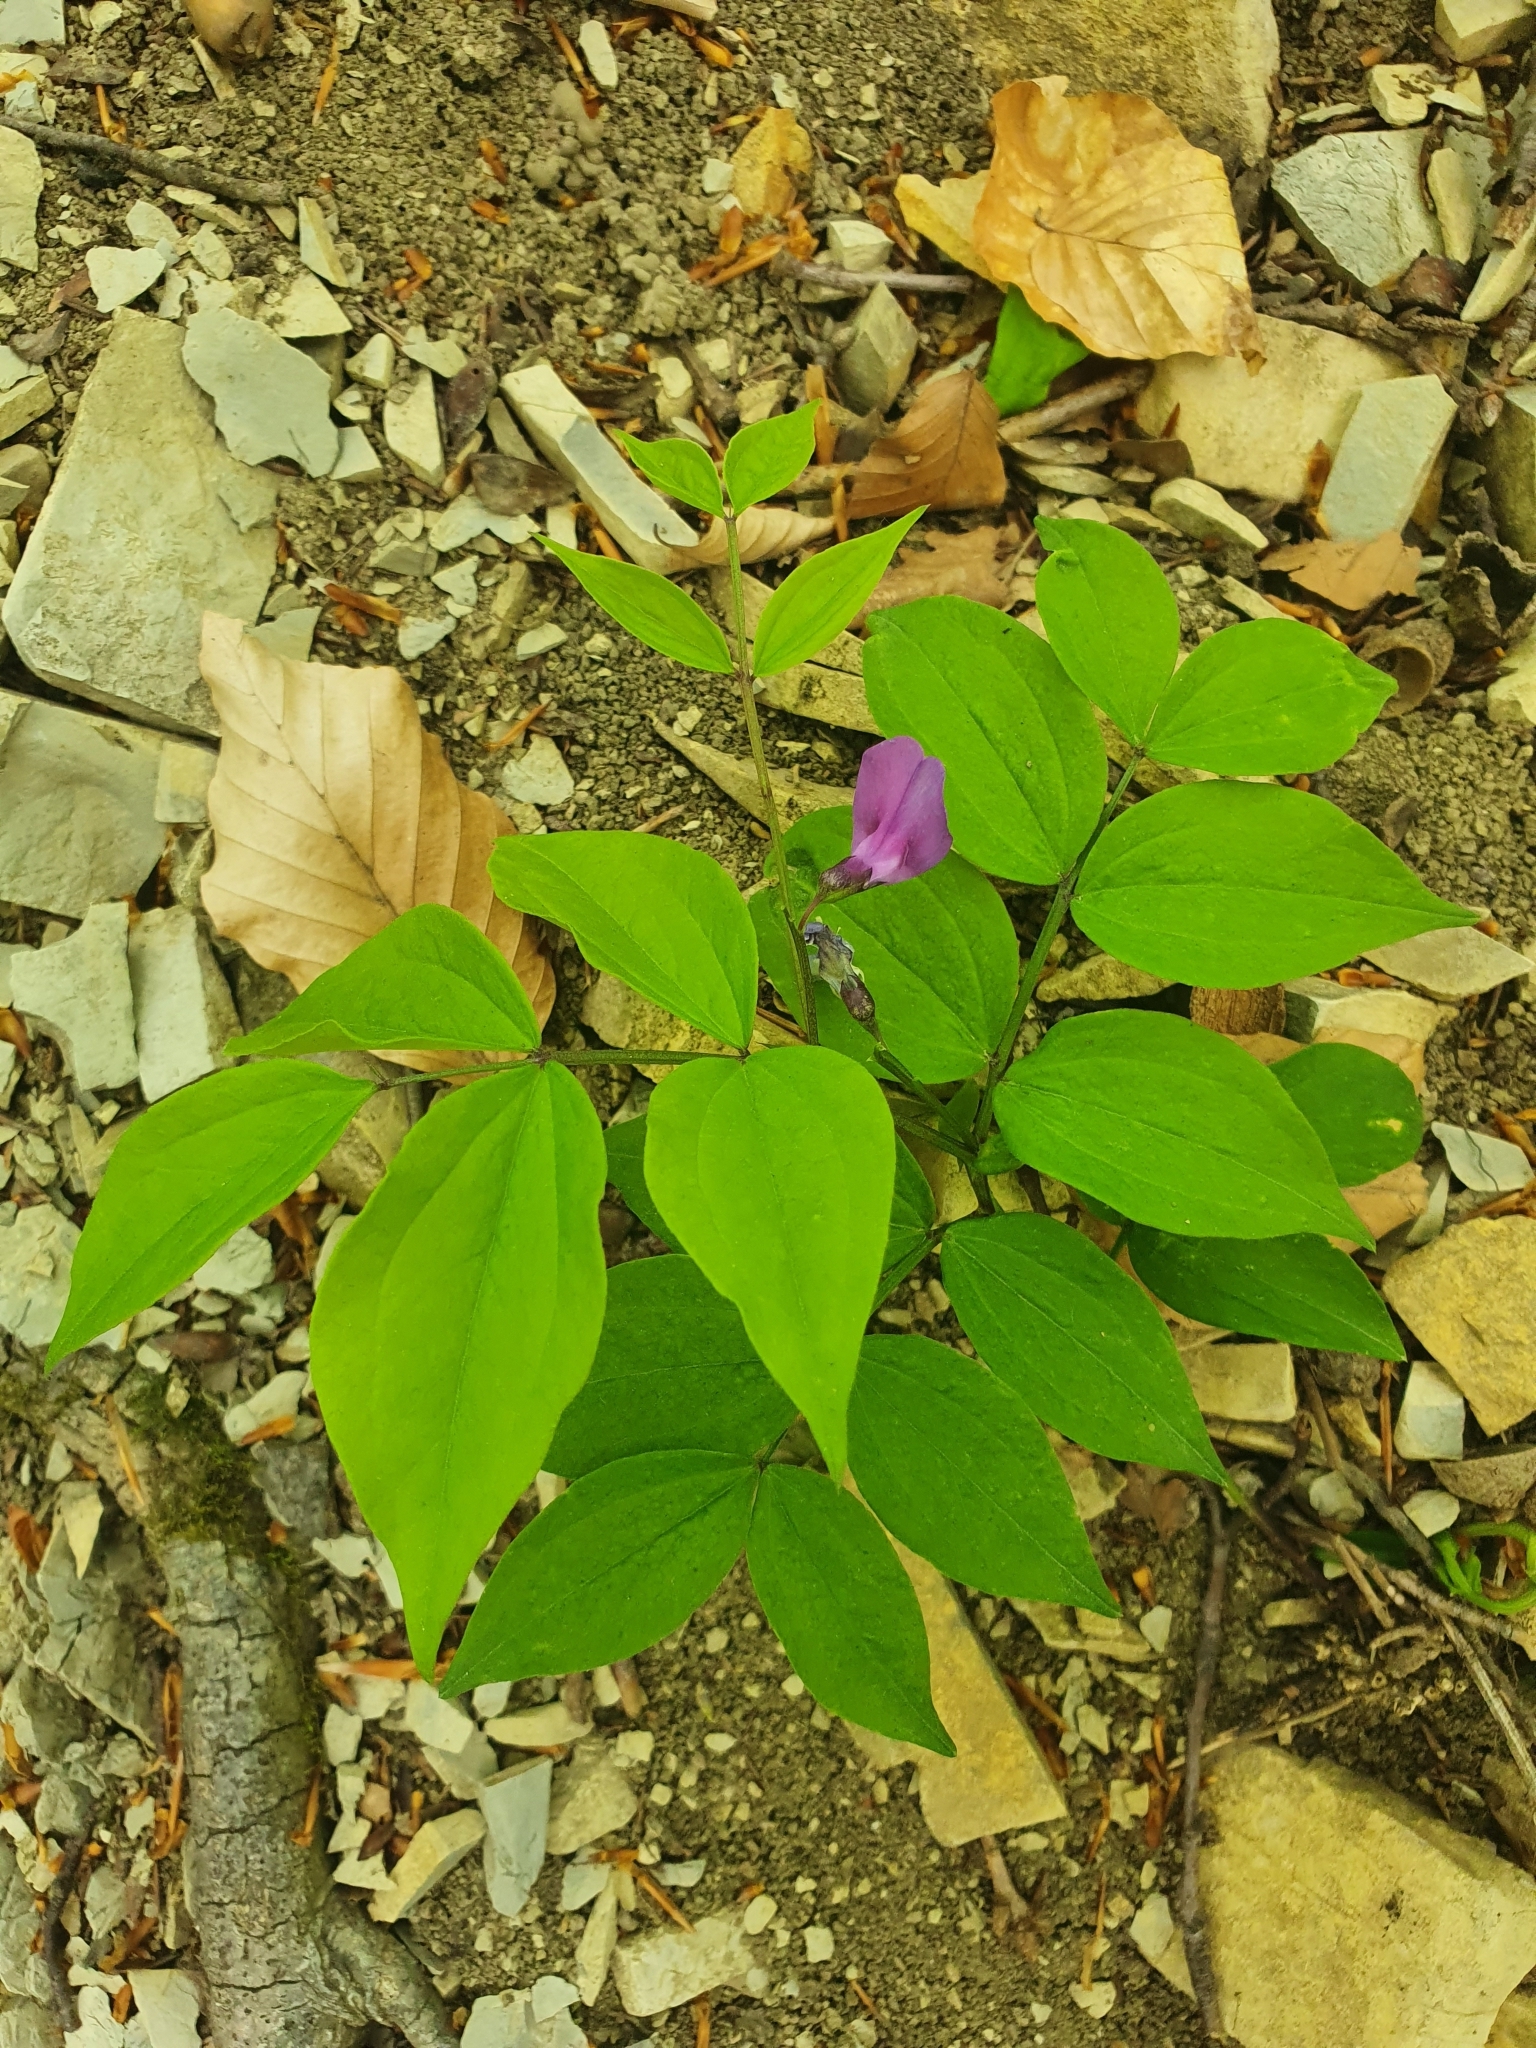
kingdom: Plantae
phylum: Tracheophyta
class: Magnoliopsida
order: Fabales
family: Fabaceae
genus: Lathyrus
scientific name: Lathyrus vernus
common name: Spring pea
